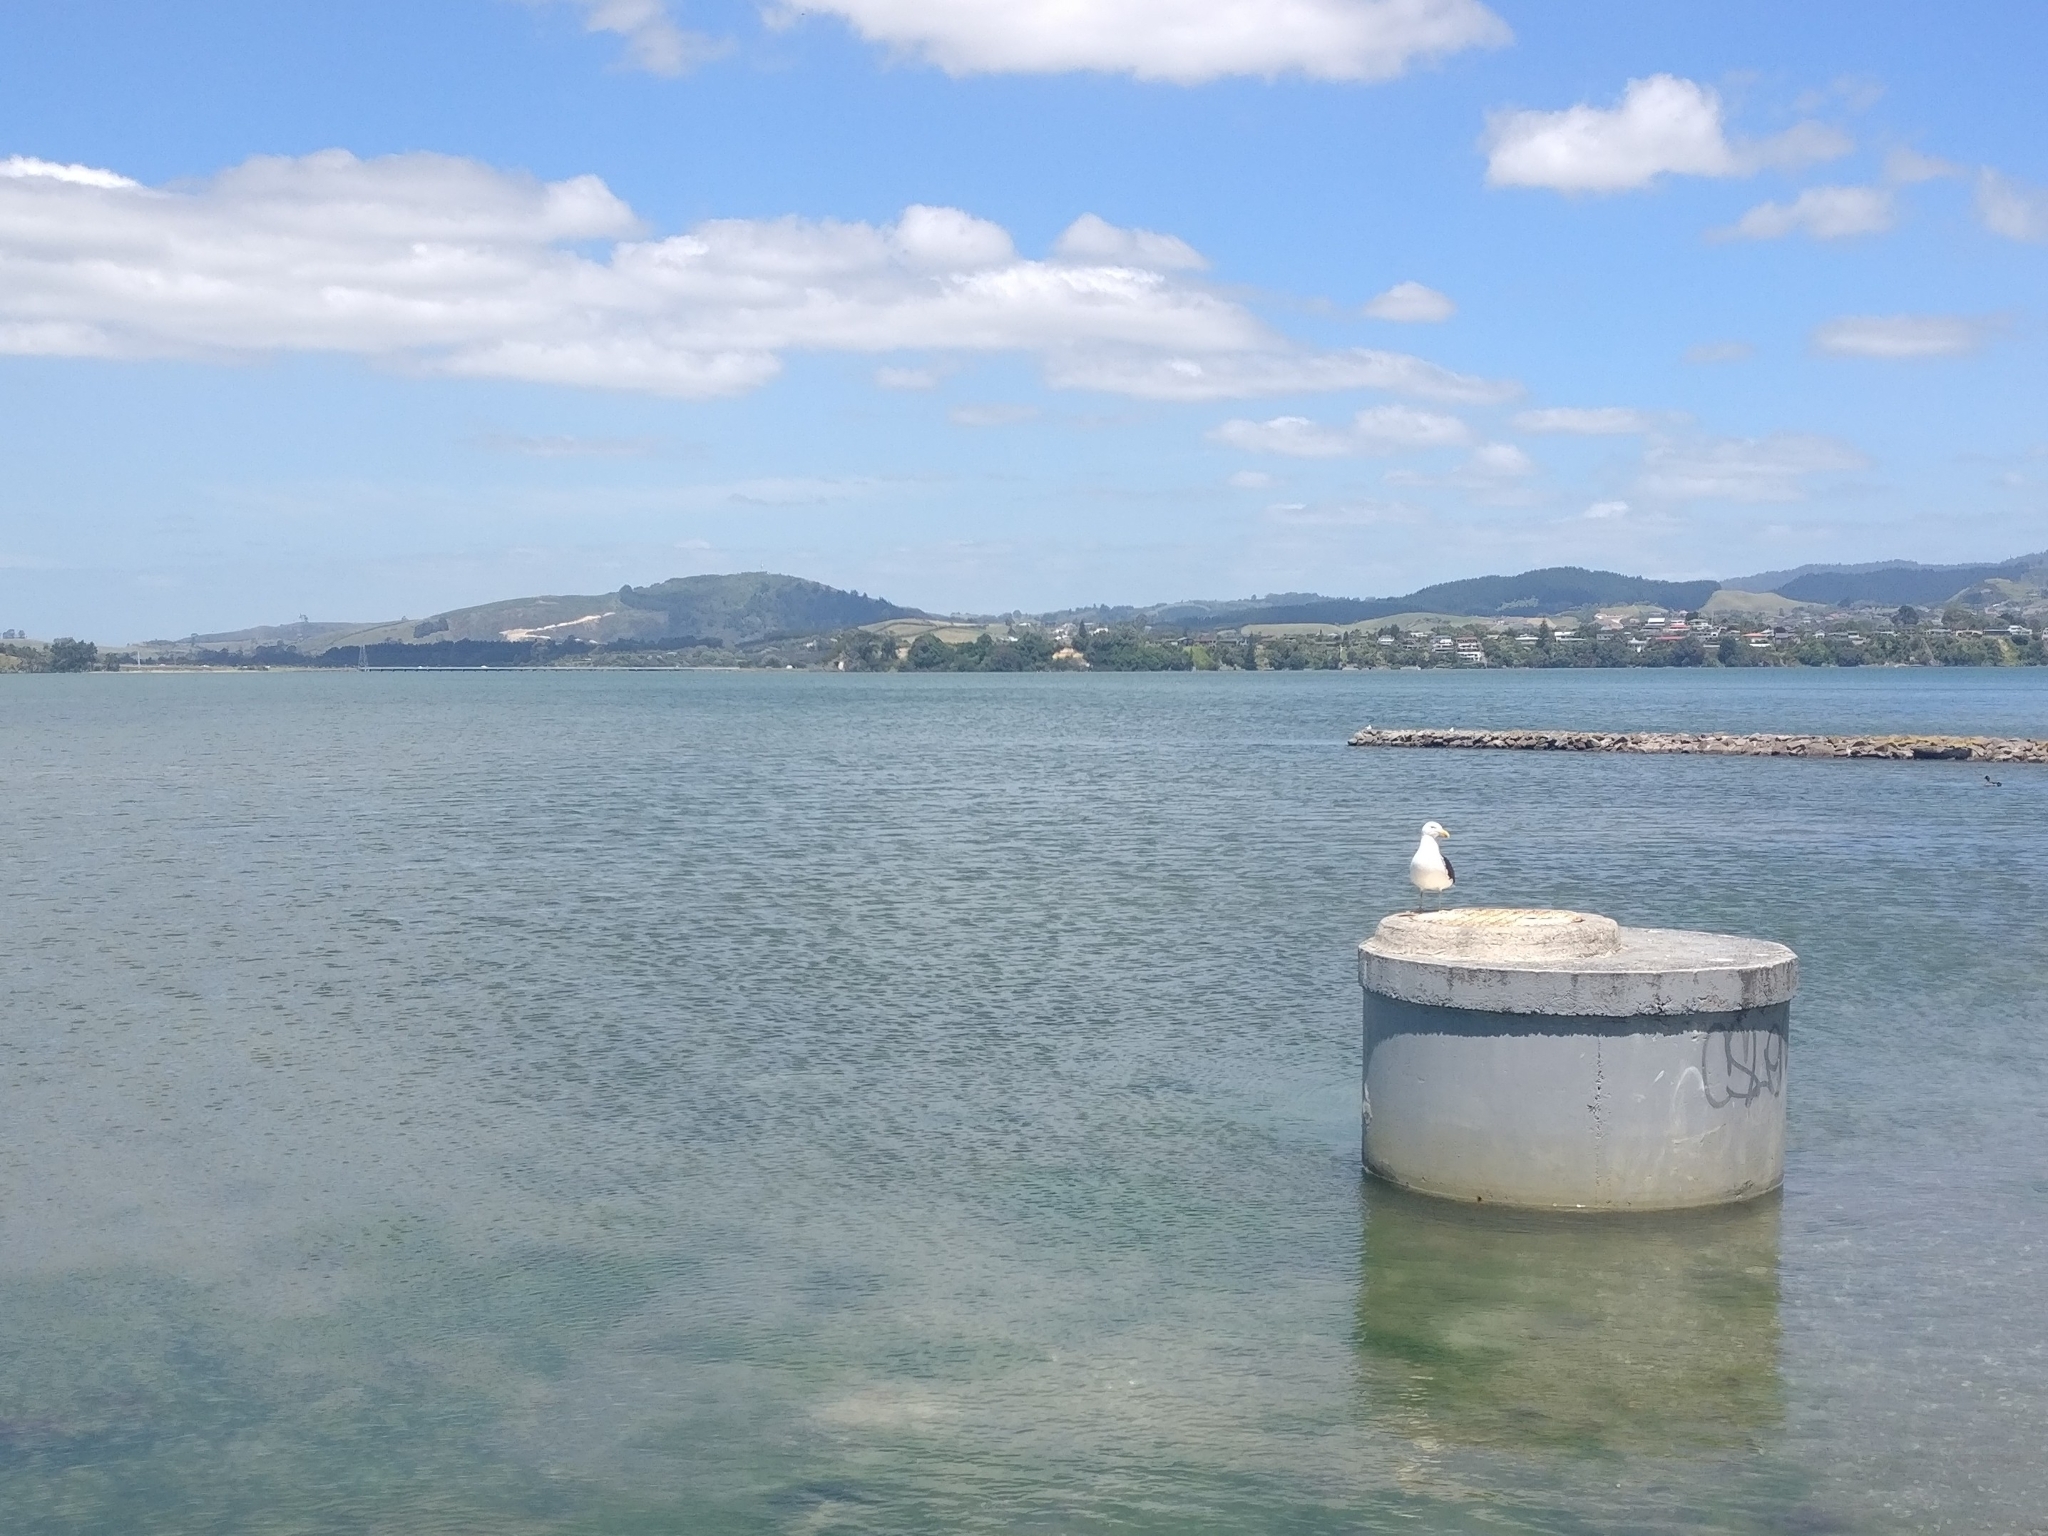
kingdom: Animalia
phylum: Chordata
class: Aves
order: Charadriiformes
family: Laridae
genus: Larus
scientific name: Larus dominicanus
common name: Kelp gull
